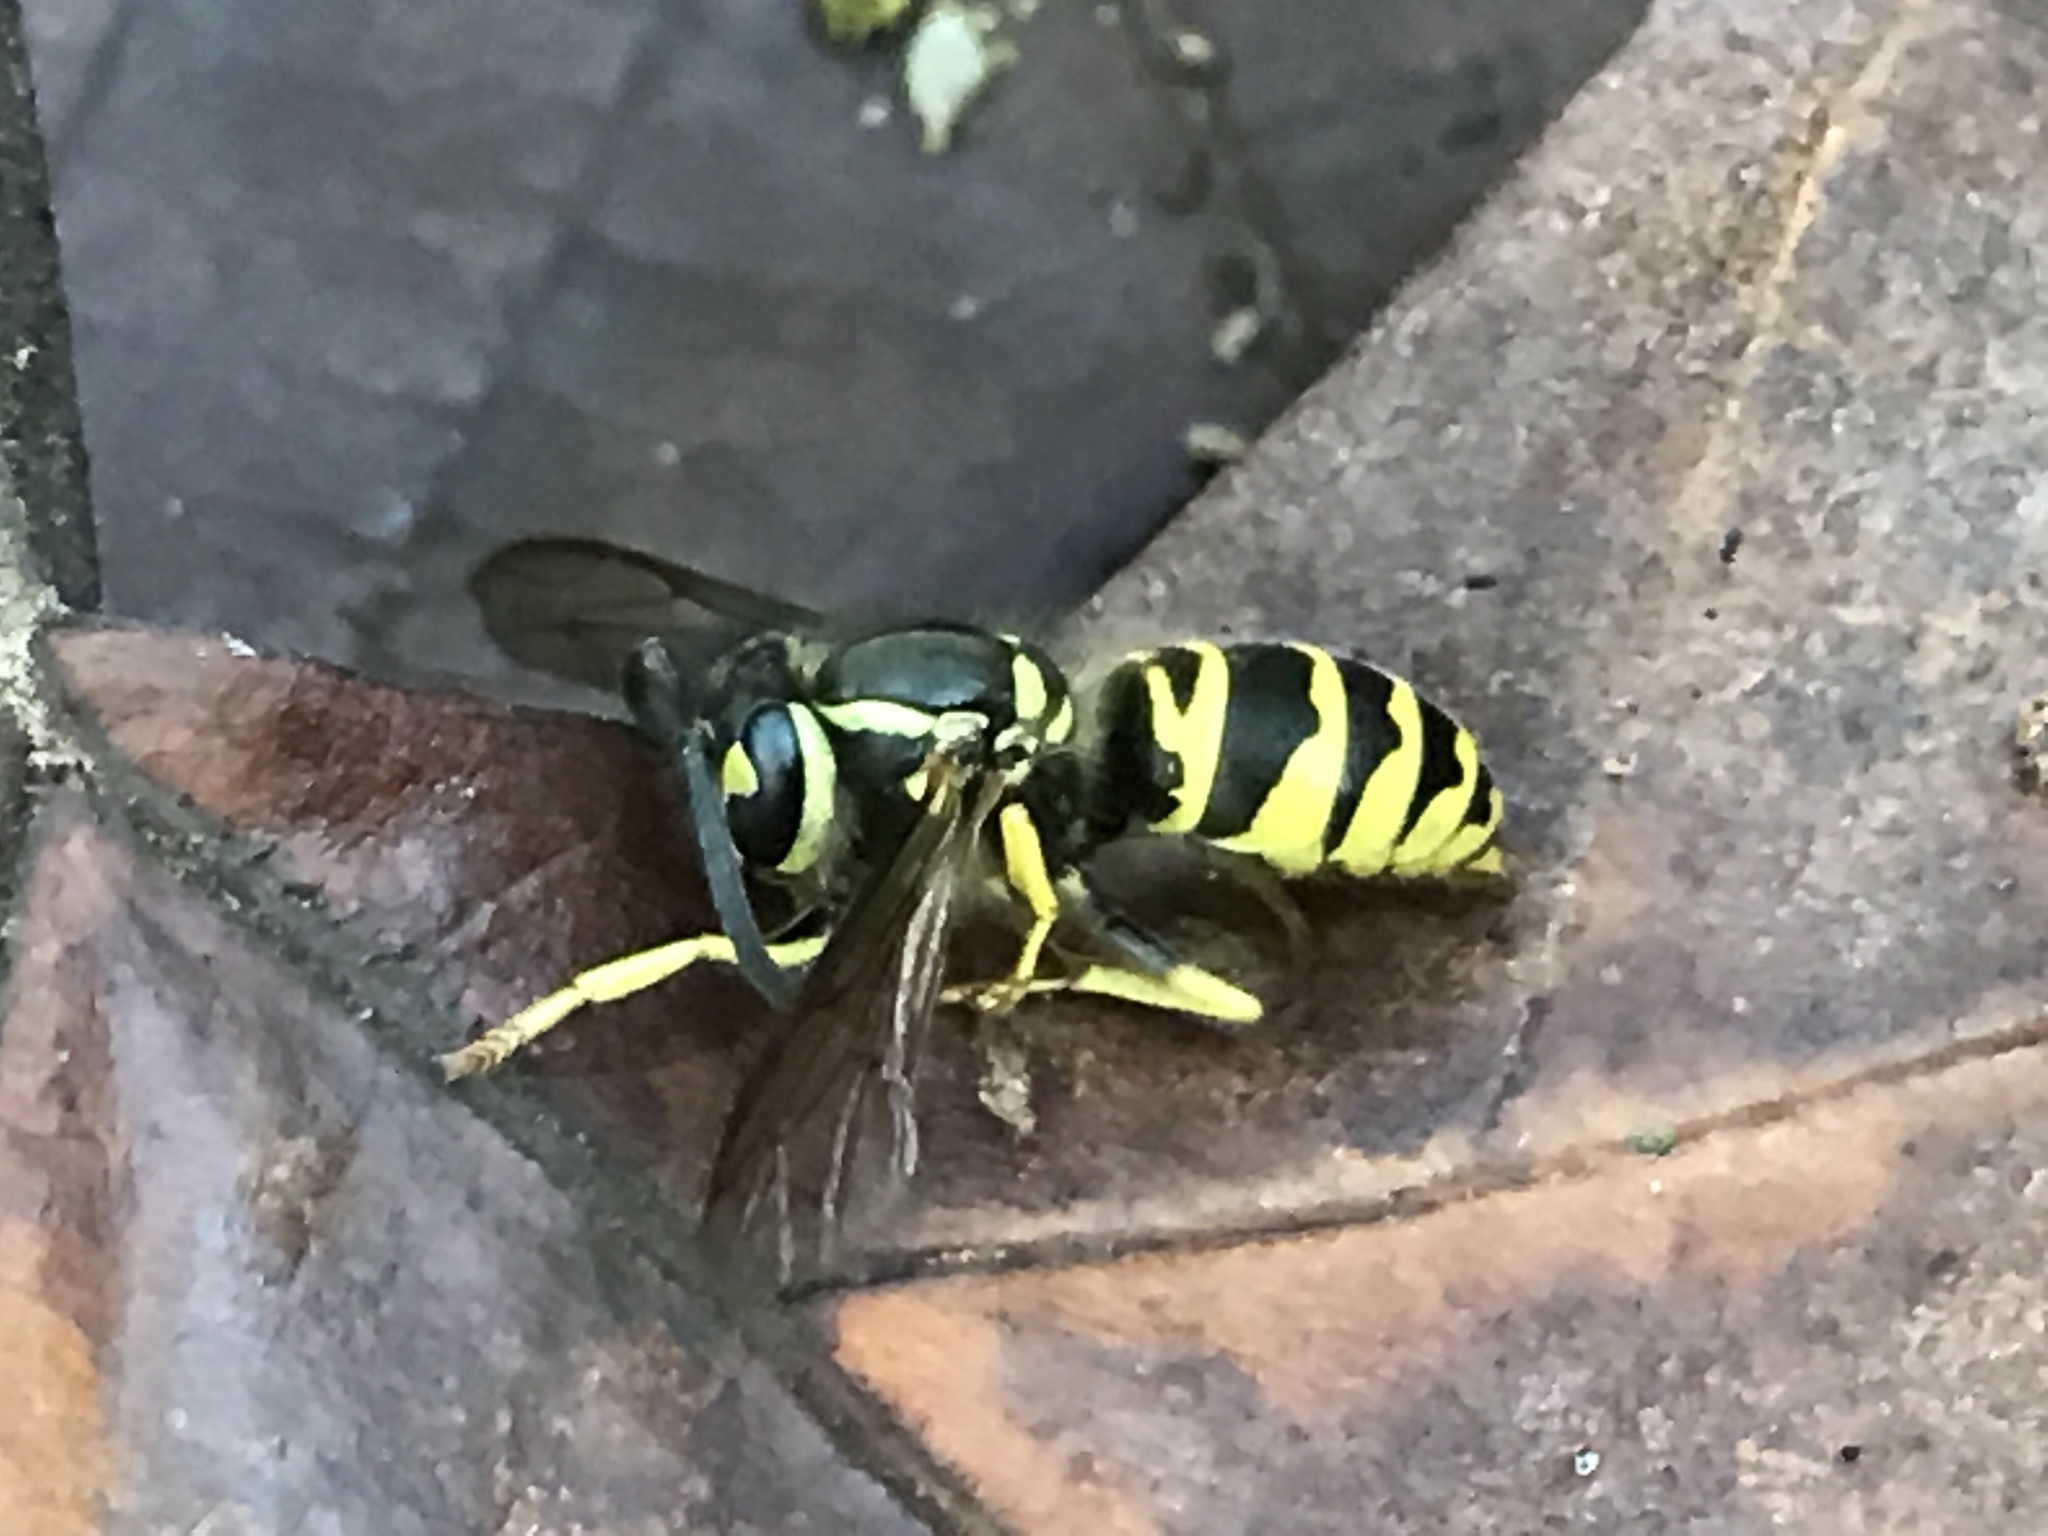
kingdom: Animalia
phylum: Arthropoda
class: Insecta
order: Hymenoptera
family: Vespidae
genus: Vespula
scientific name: Vespula maculifrons
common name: Eastern yellowjacket
